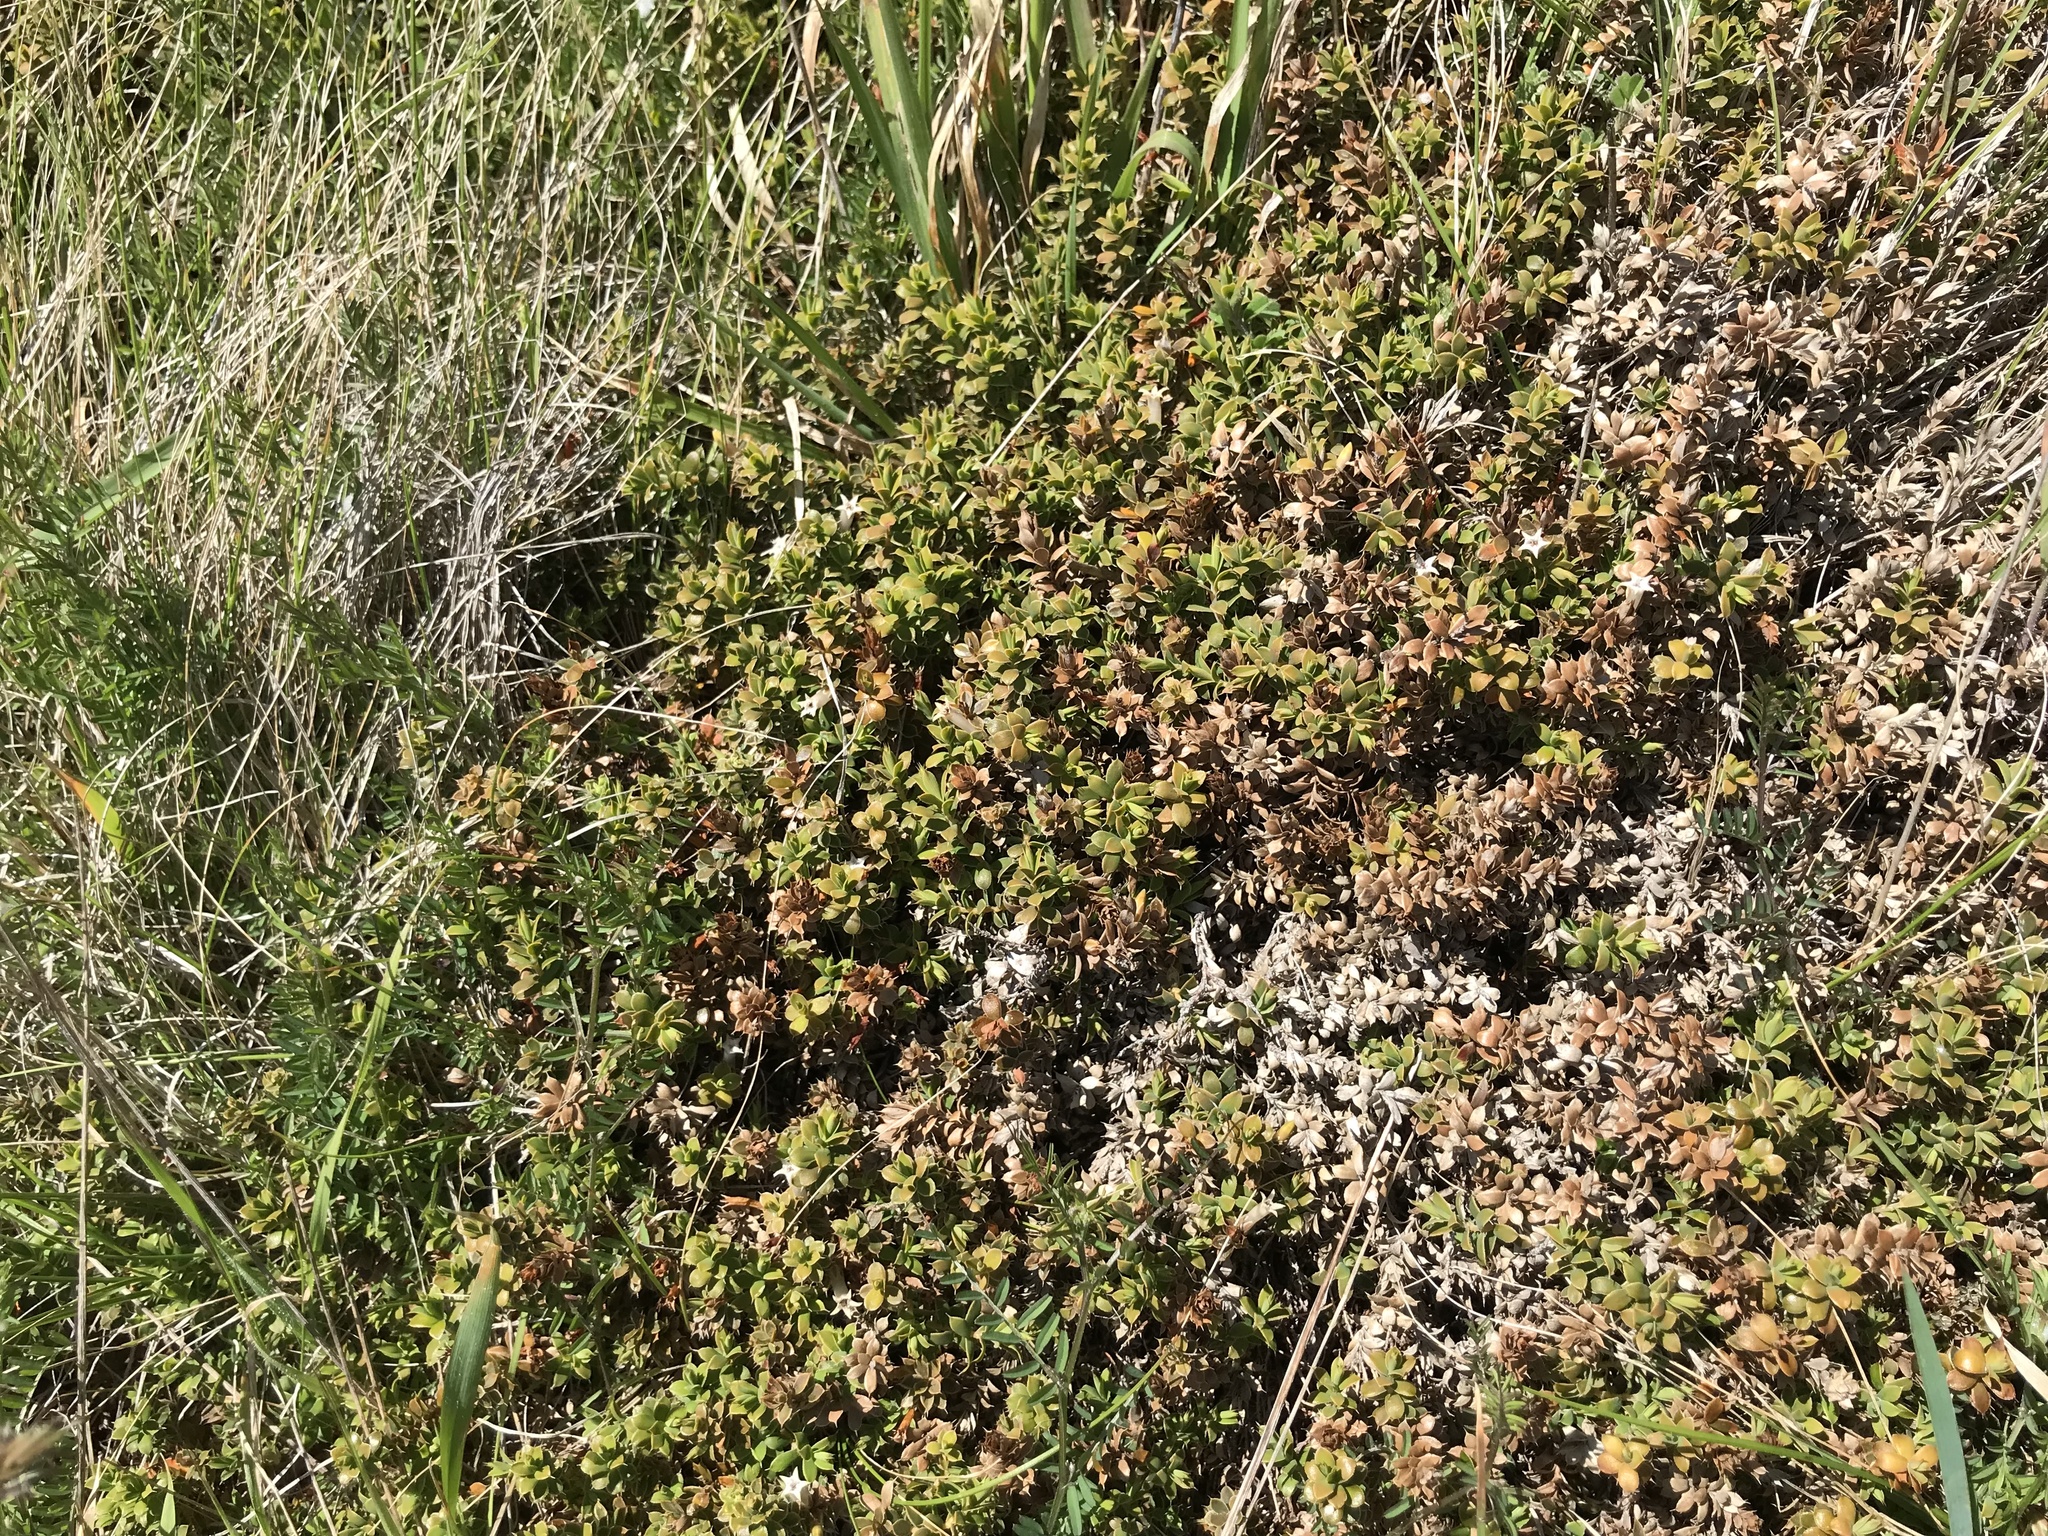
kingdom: Plantae
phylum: Tracheophyta
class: Magnoliopsida
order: Ericales
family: Ericaceae
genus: Styphelia
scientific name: Styphelia nesophila
